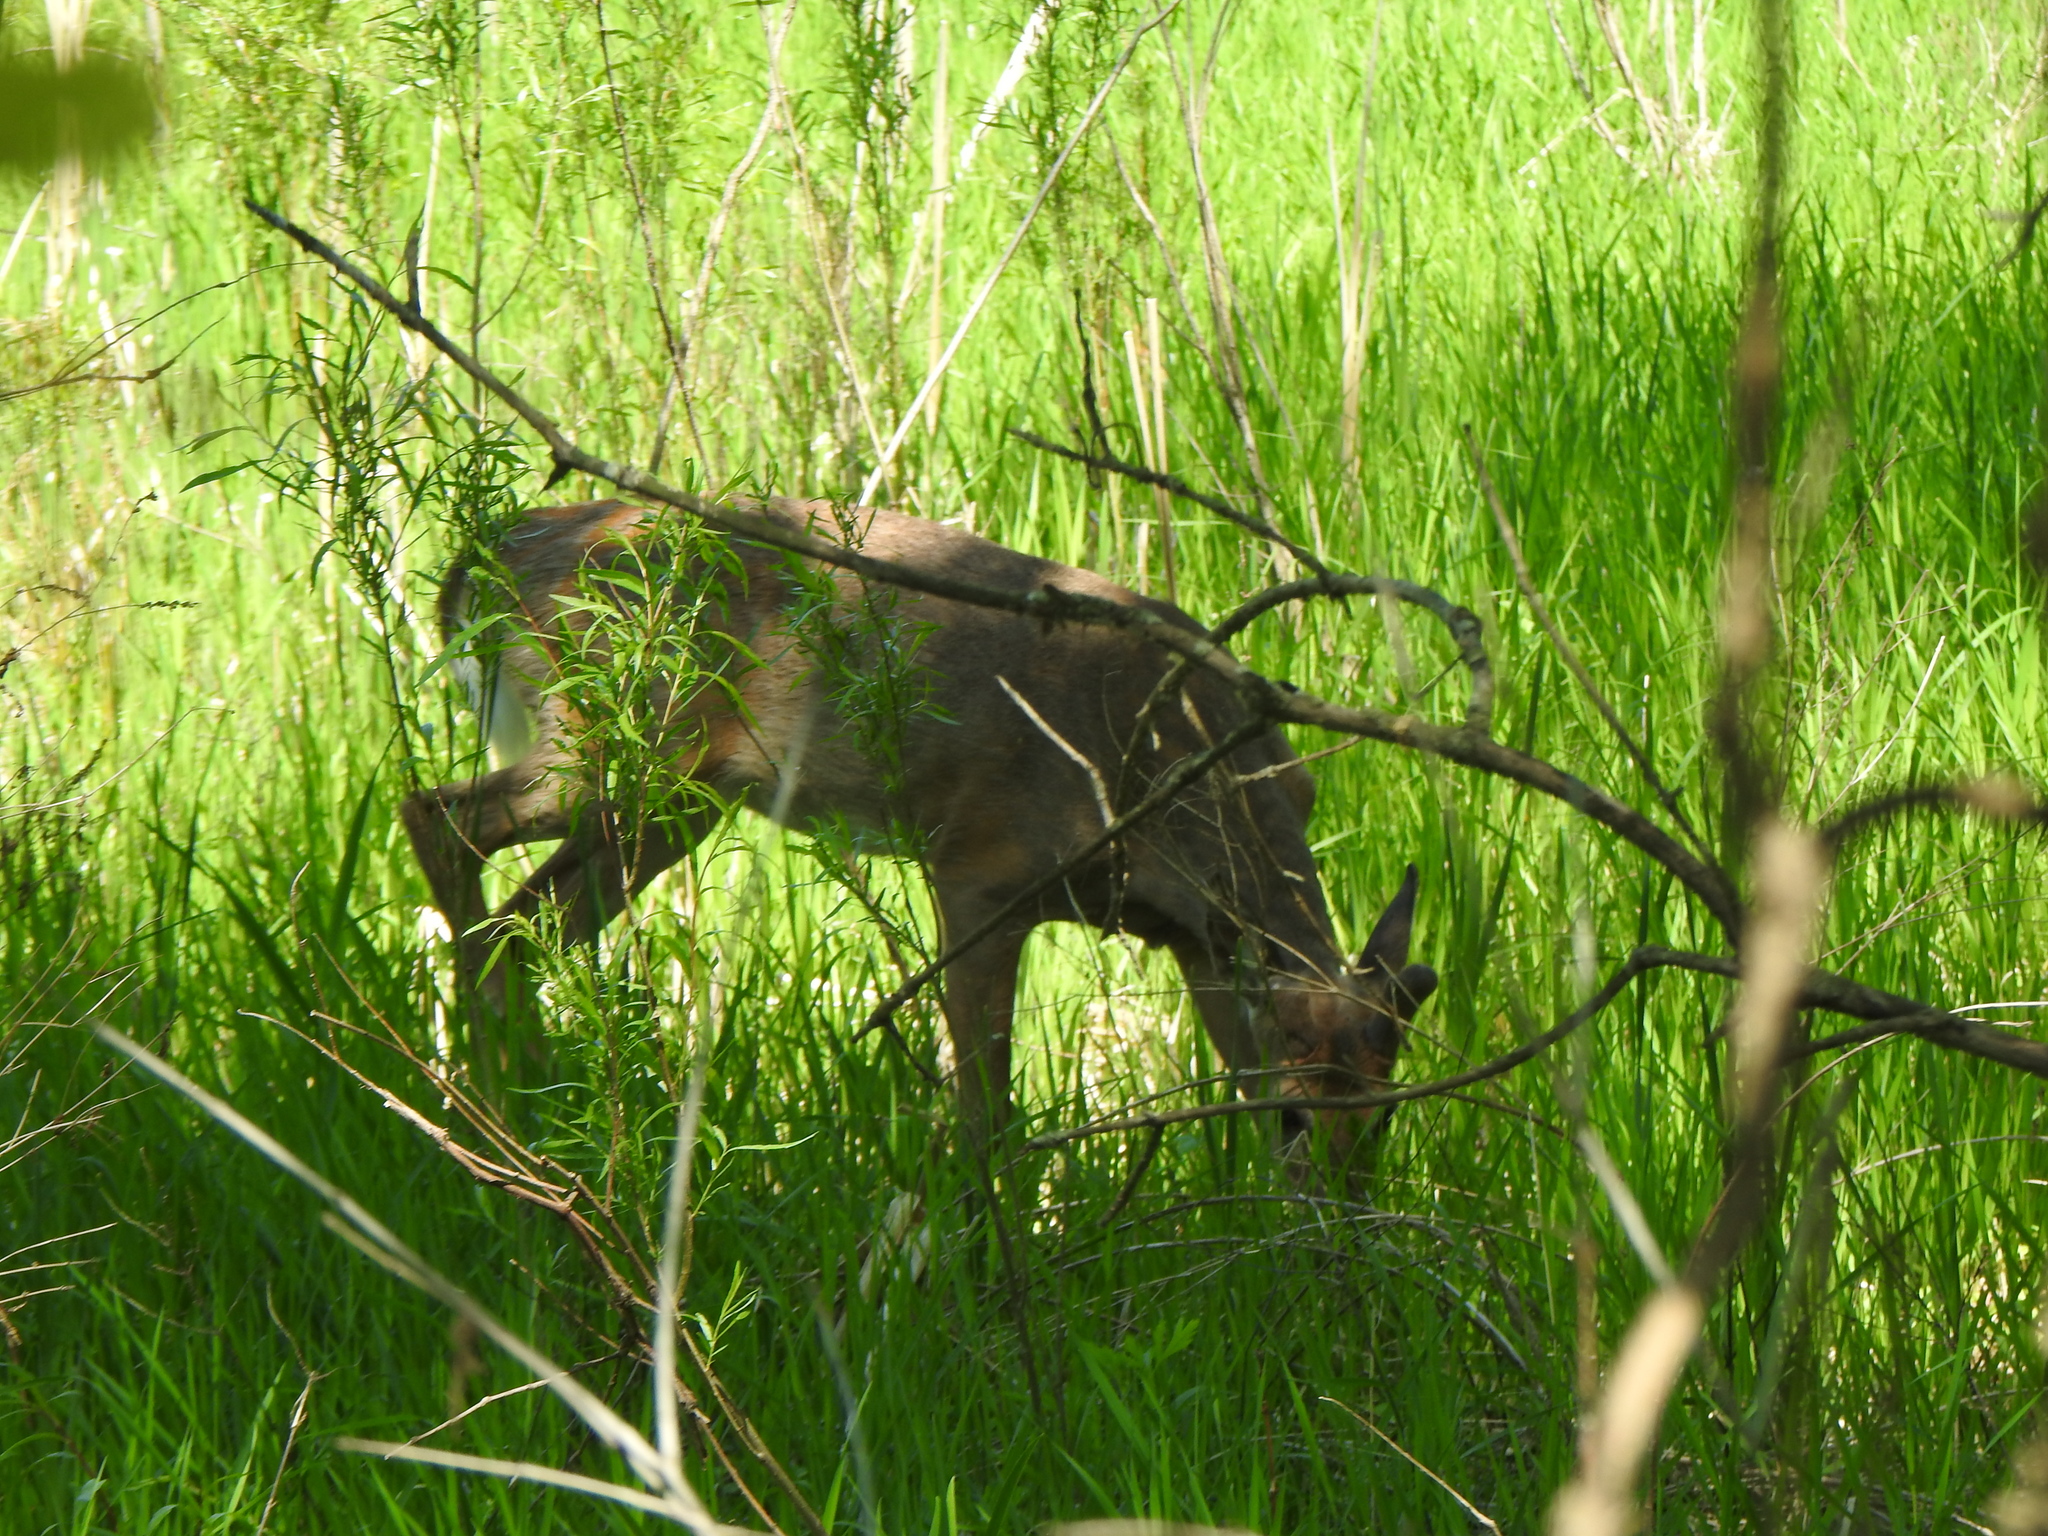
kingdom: Animalia
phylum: Chordata
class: Mammalia
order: Artiodactyla
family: Cervidae
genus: Odocoileus
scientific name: Odocoileus virginianus
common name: White-tailed deer
